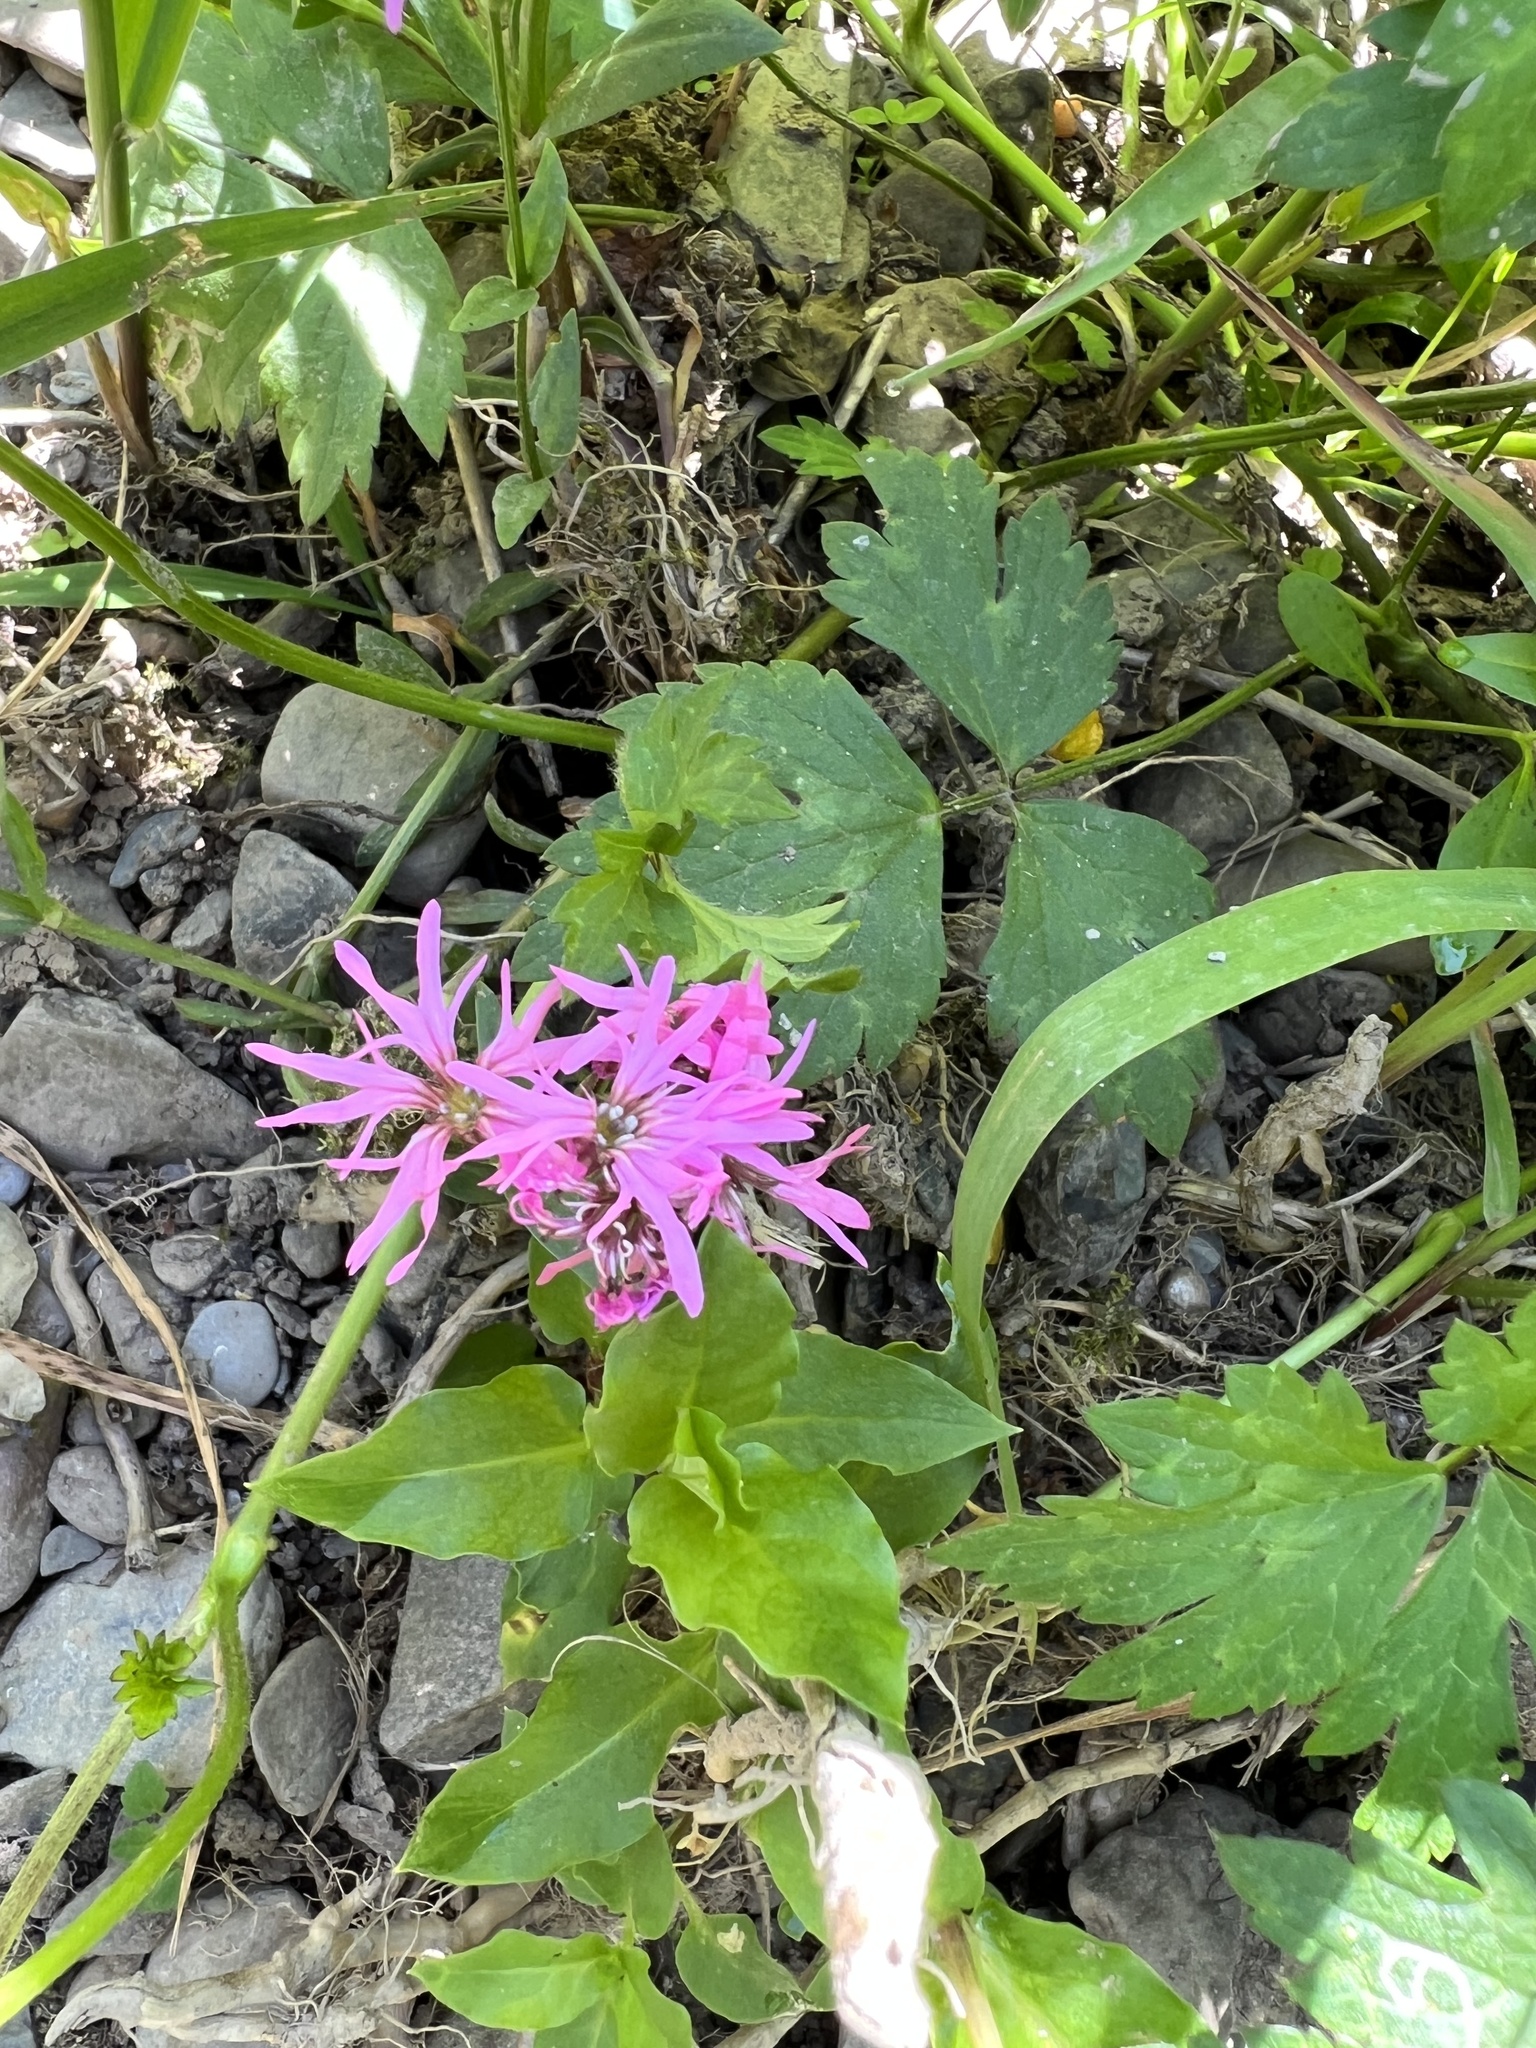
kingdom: Plantae
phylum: Tracheophyta
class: Magnoliopsida
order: Caryophyllales
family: Caryophyllaceae
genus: Silene
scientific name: Silene flos-cuculi
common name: Ragged-robin
